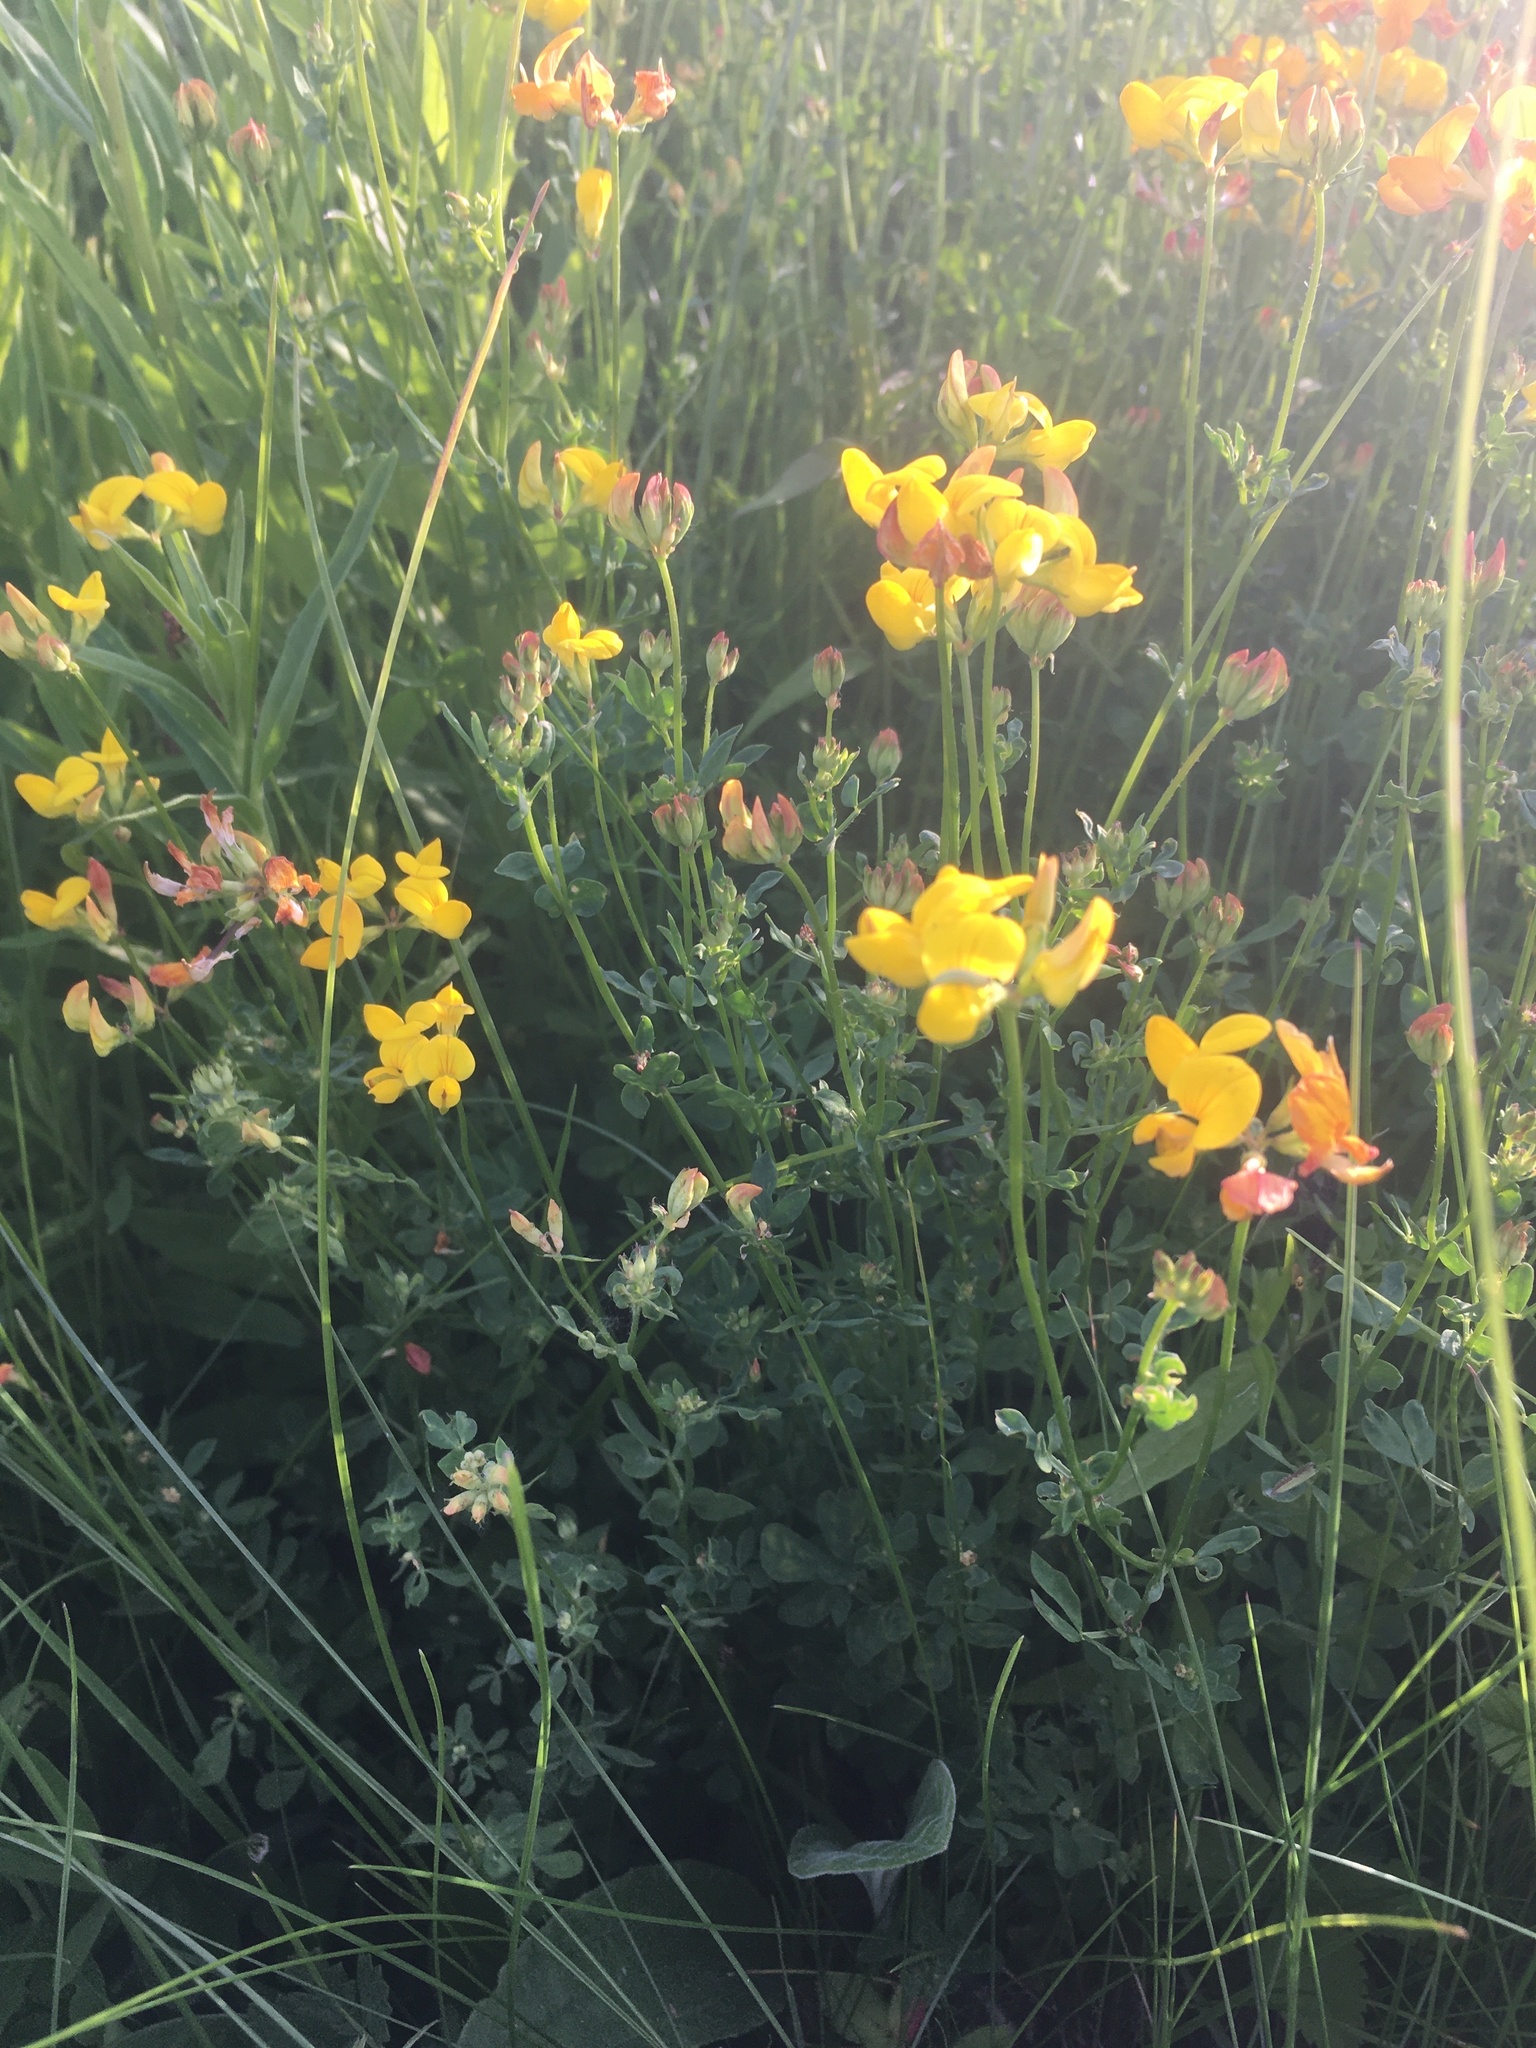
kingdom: Plantae
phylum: Tracheophyta
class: Magnoliopsida
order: Fabales
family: Fabaceae
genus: Lotus
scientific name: Lotus corniculatus
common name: Common bird's-foot-trefoil
